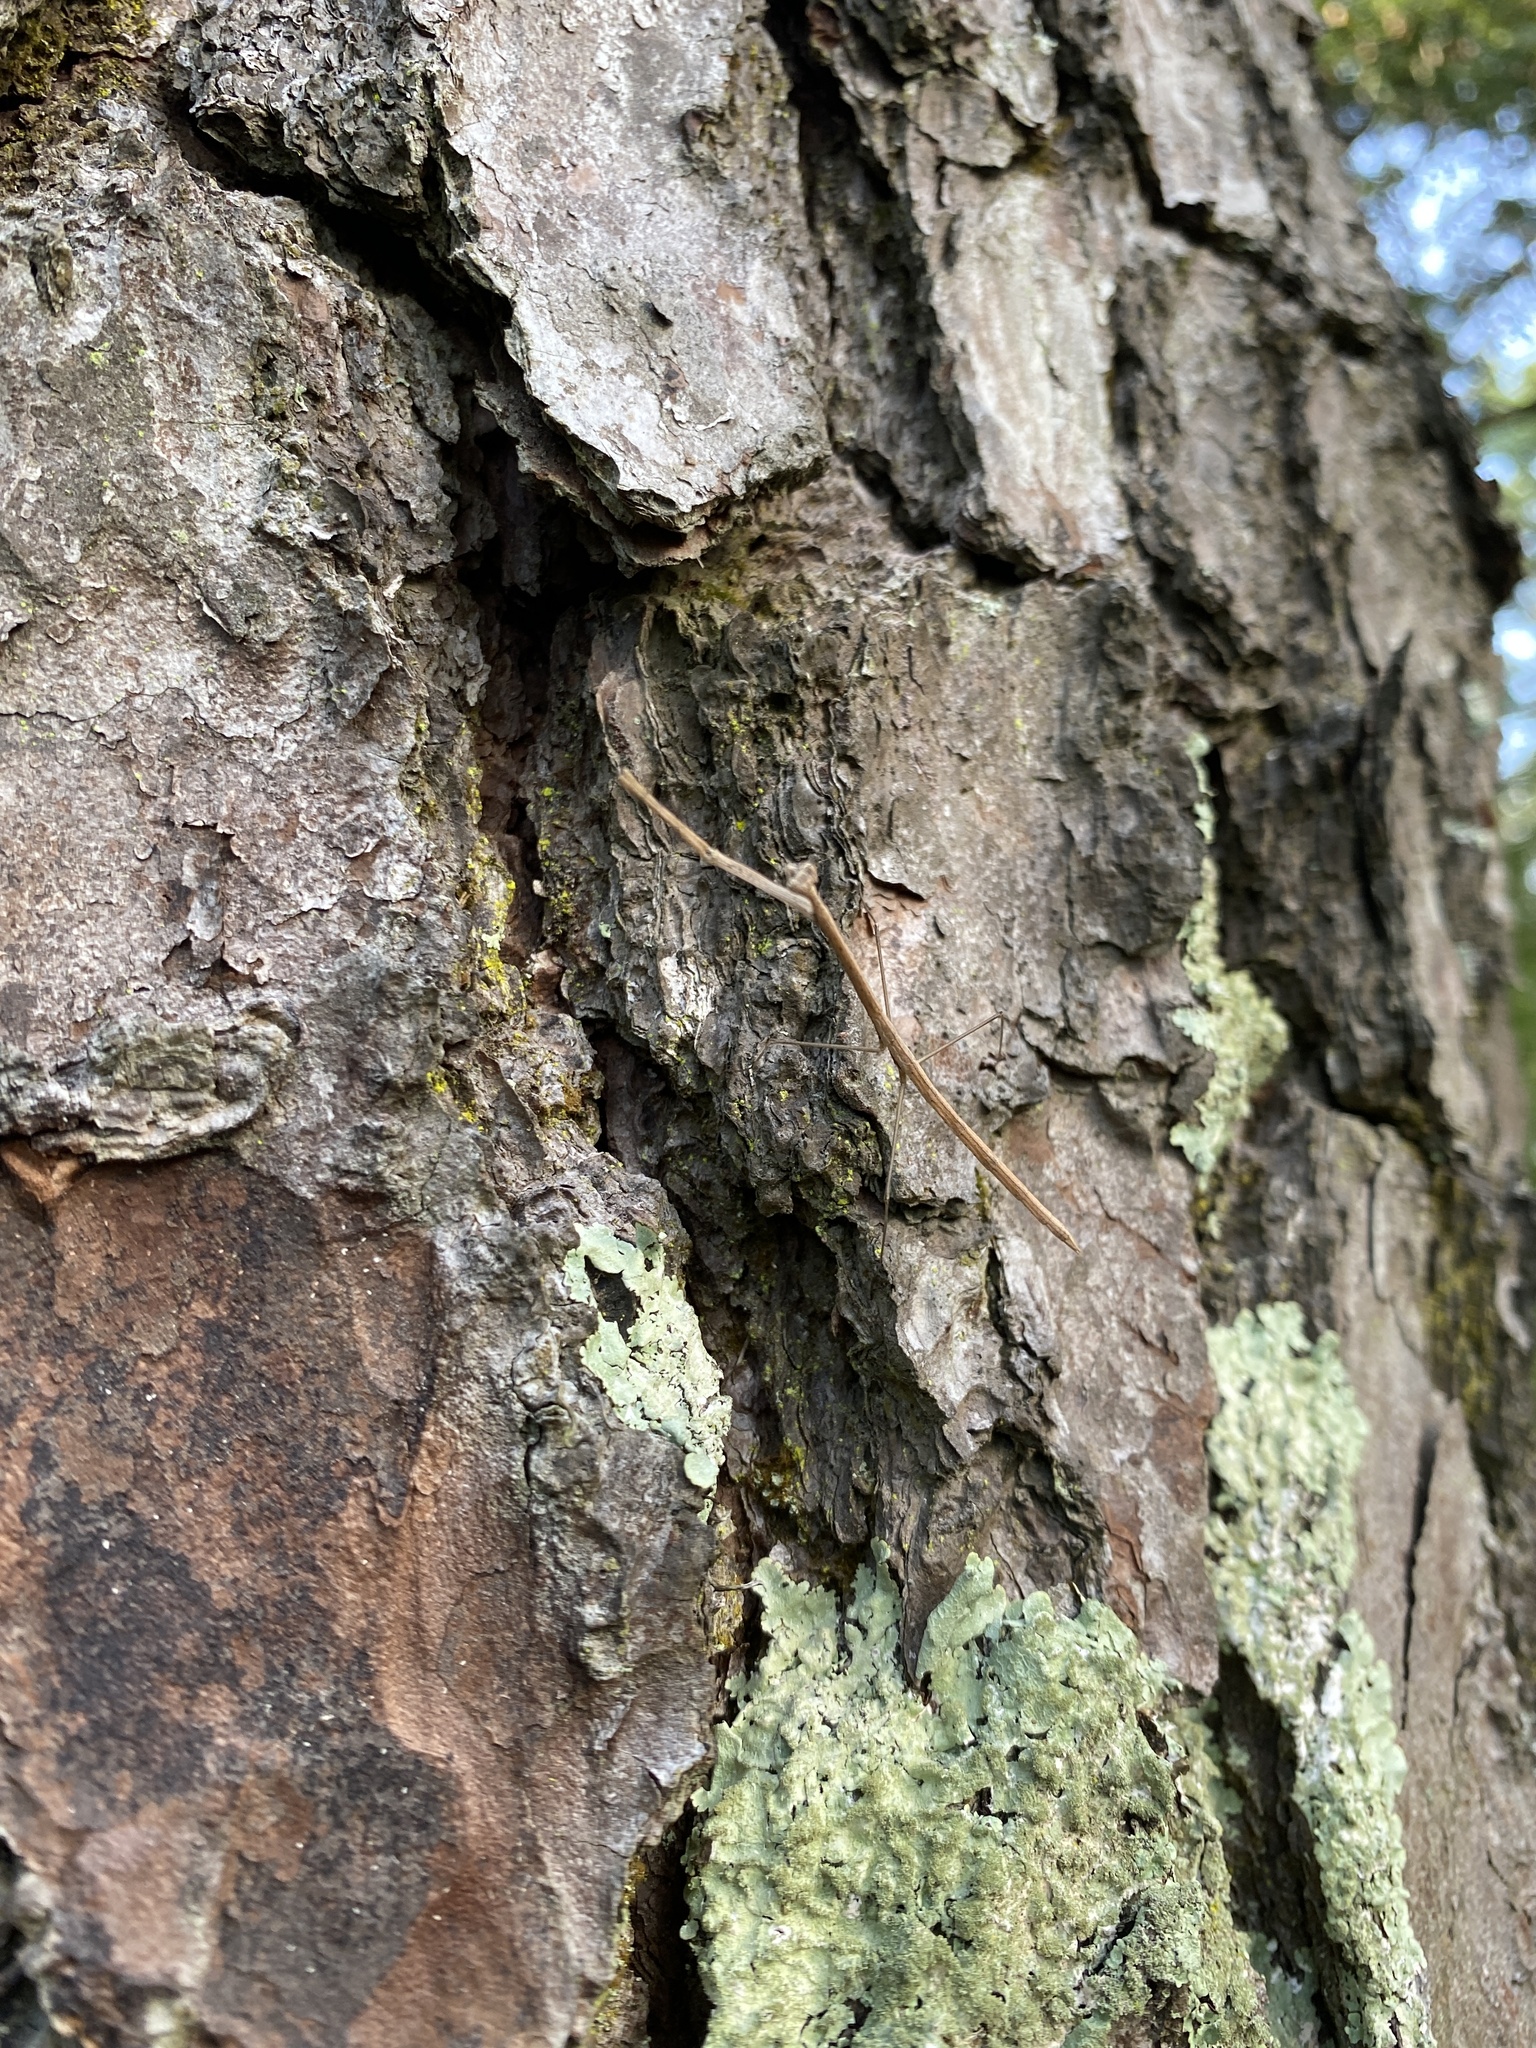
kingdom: Animalia
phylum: Arthropoda
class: Insecta
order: Mantodea
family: Thespidae
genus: Thesprotia
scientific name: Thesprotia graminis
